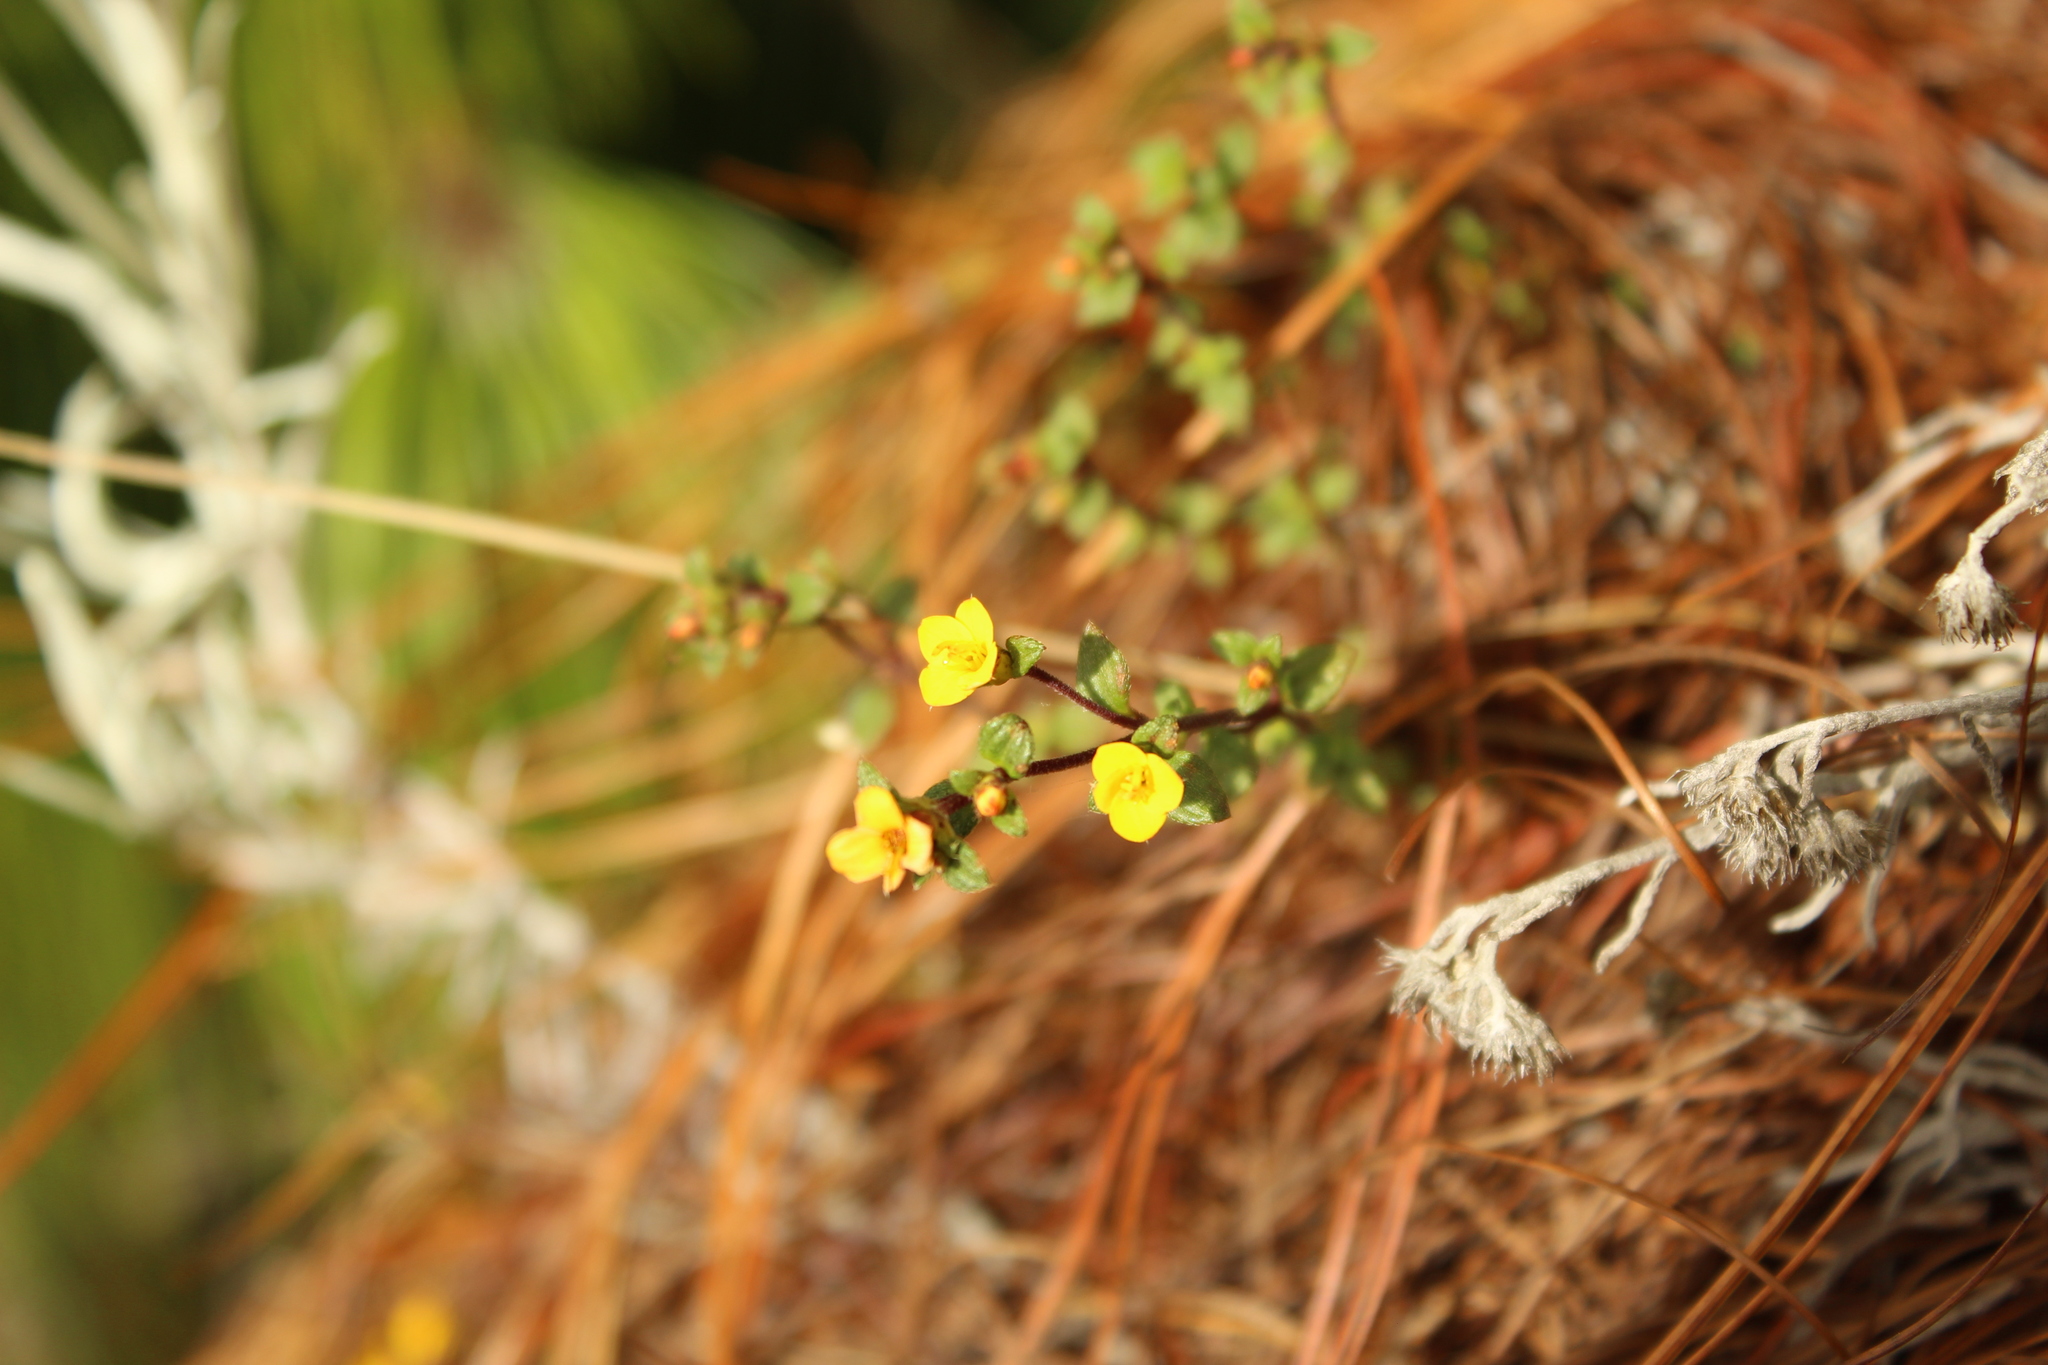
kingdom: Plantae
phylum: Tracheophyta
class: Magnoliopsida
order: Myrtales
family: Melastomataceae
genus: Chaetolepis
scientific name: Chaetolepis microphylla
